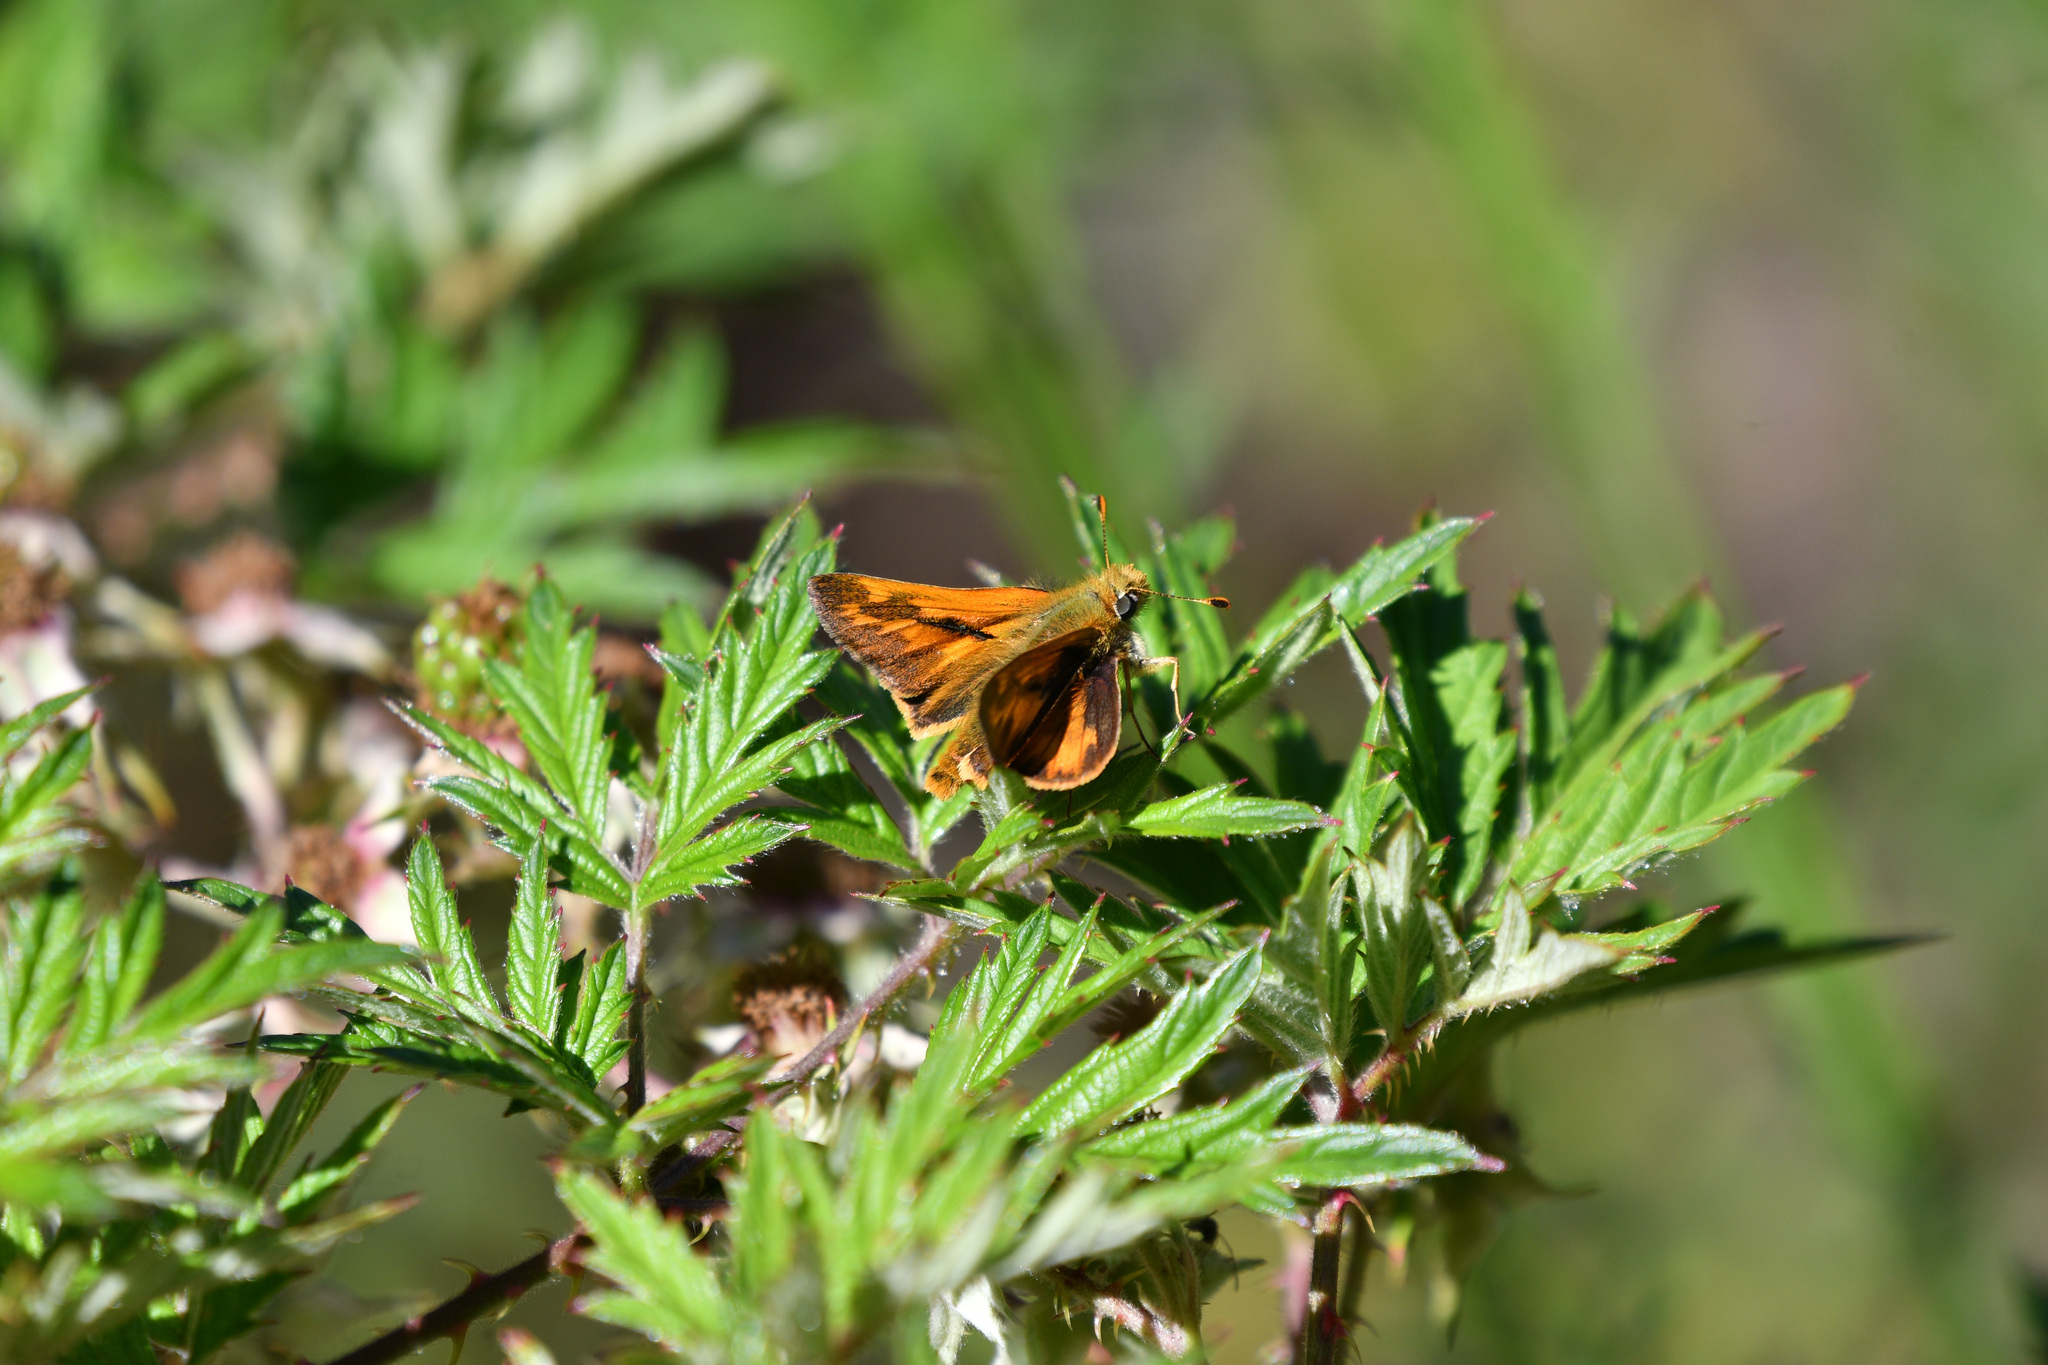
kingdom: Animalia
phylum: Arthropoda
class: Insecta
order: Lepidoptera
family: Hesperiidae
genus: Ochlodes
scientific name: Ochlodes sylvanoides
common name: Woodland skipper
